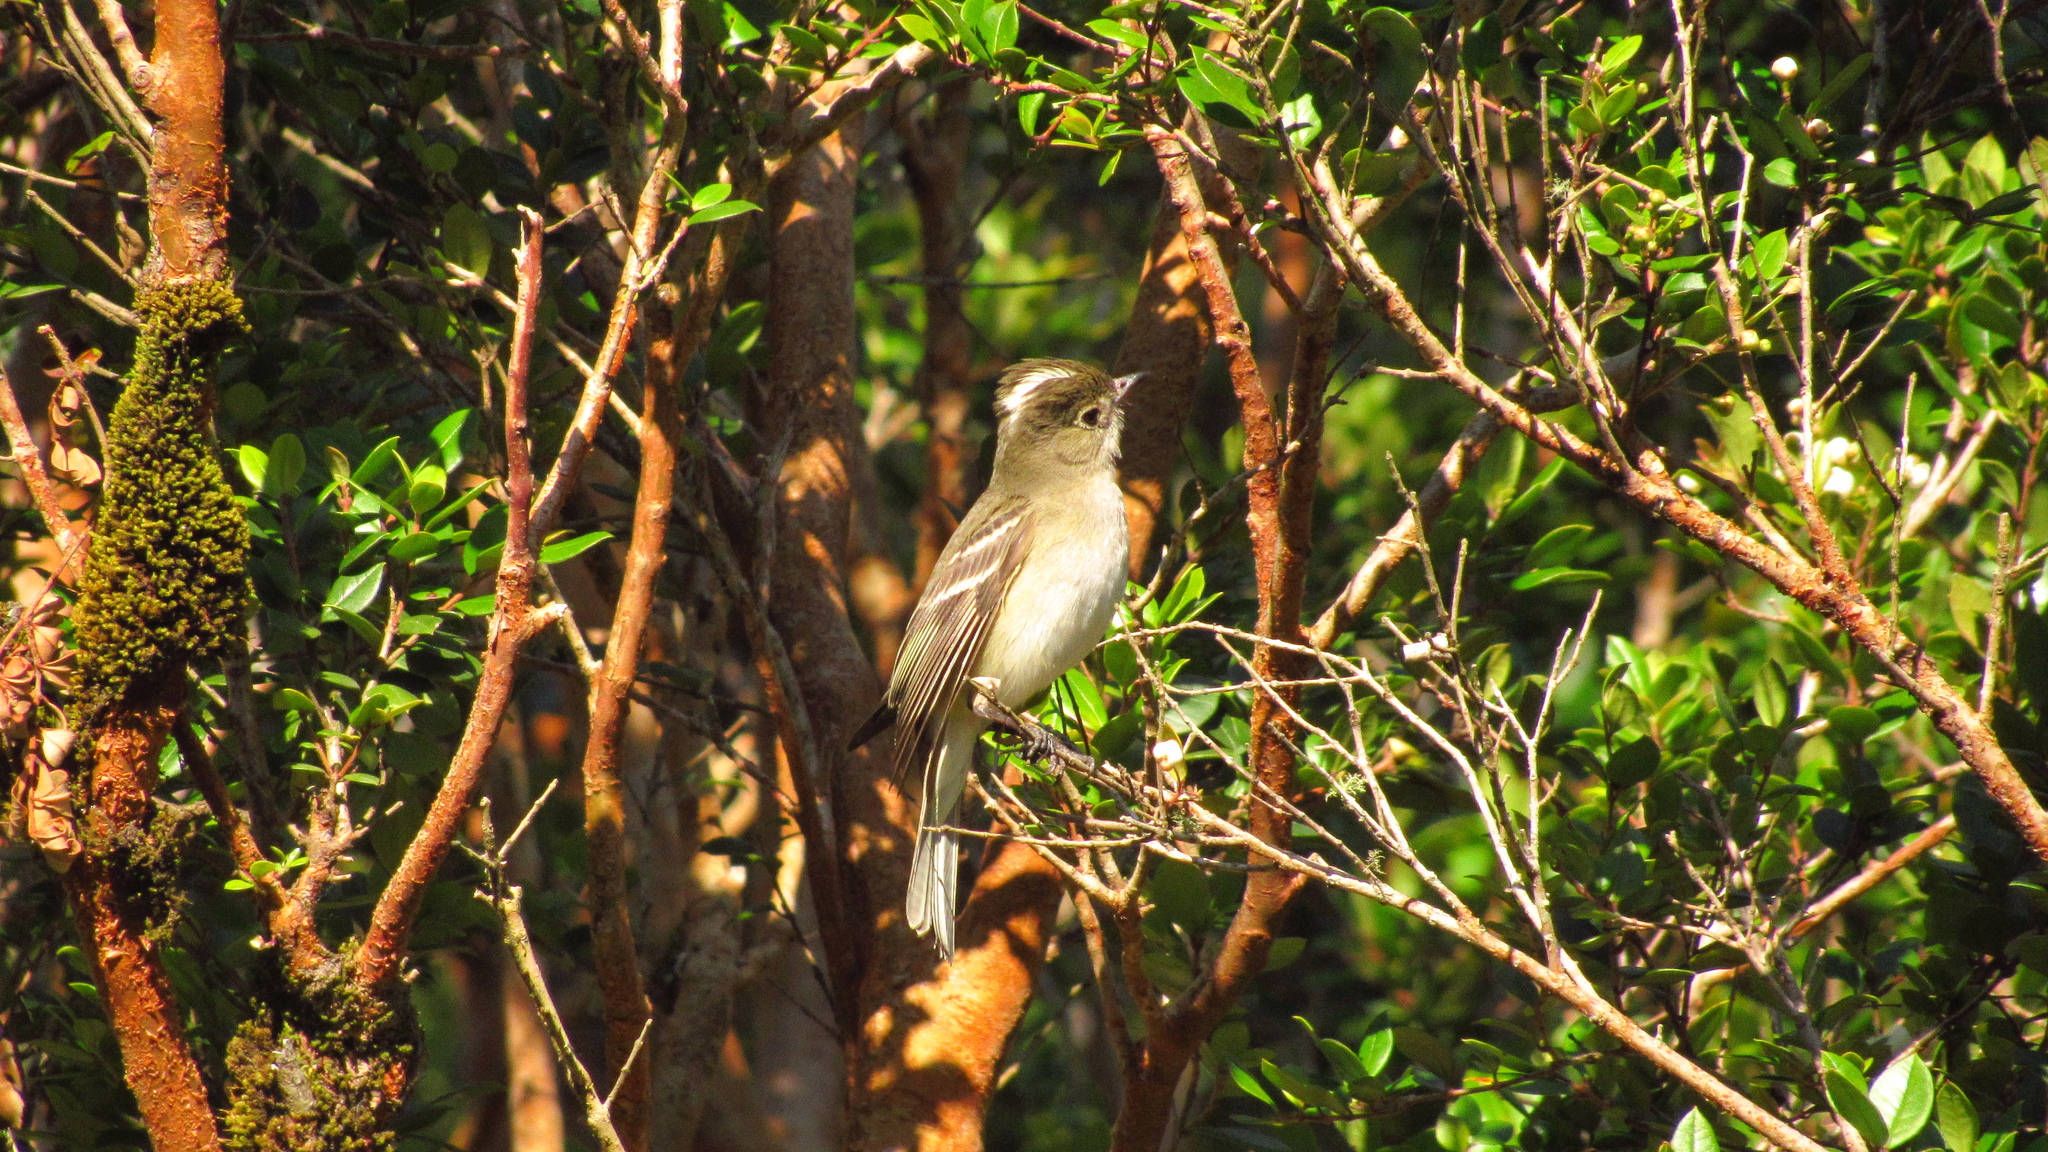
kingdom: Animalia
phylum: Chordata
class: Aves
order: Passeriformes
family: Tyrannidae
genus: Elaenia
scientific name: Elaenia albiceps
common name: White-crested elaenia
